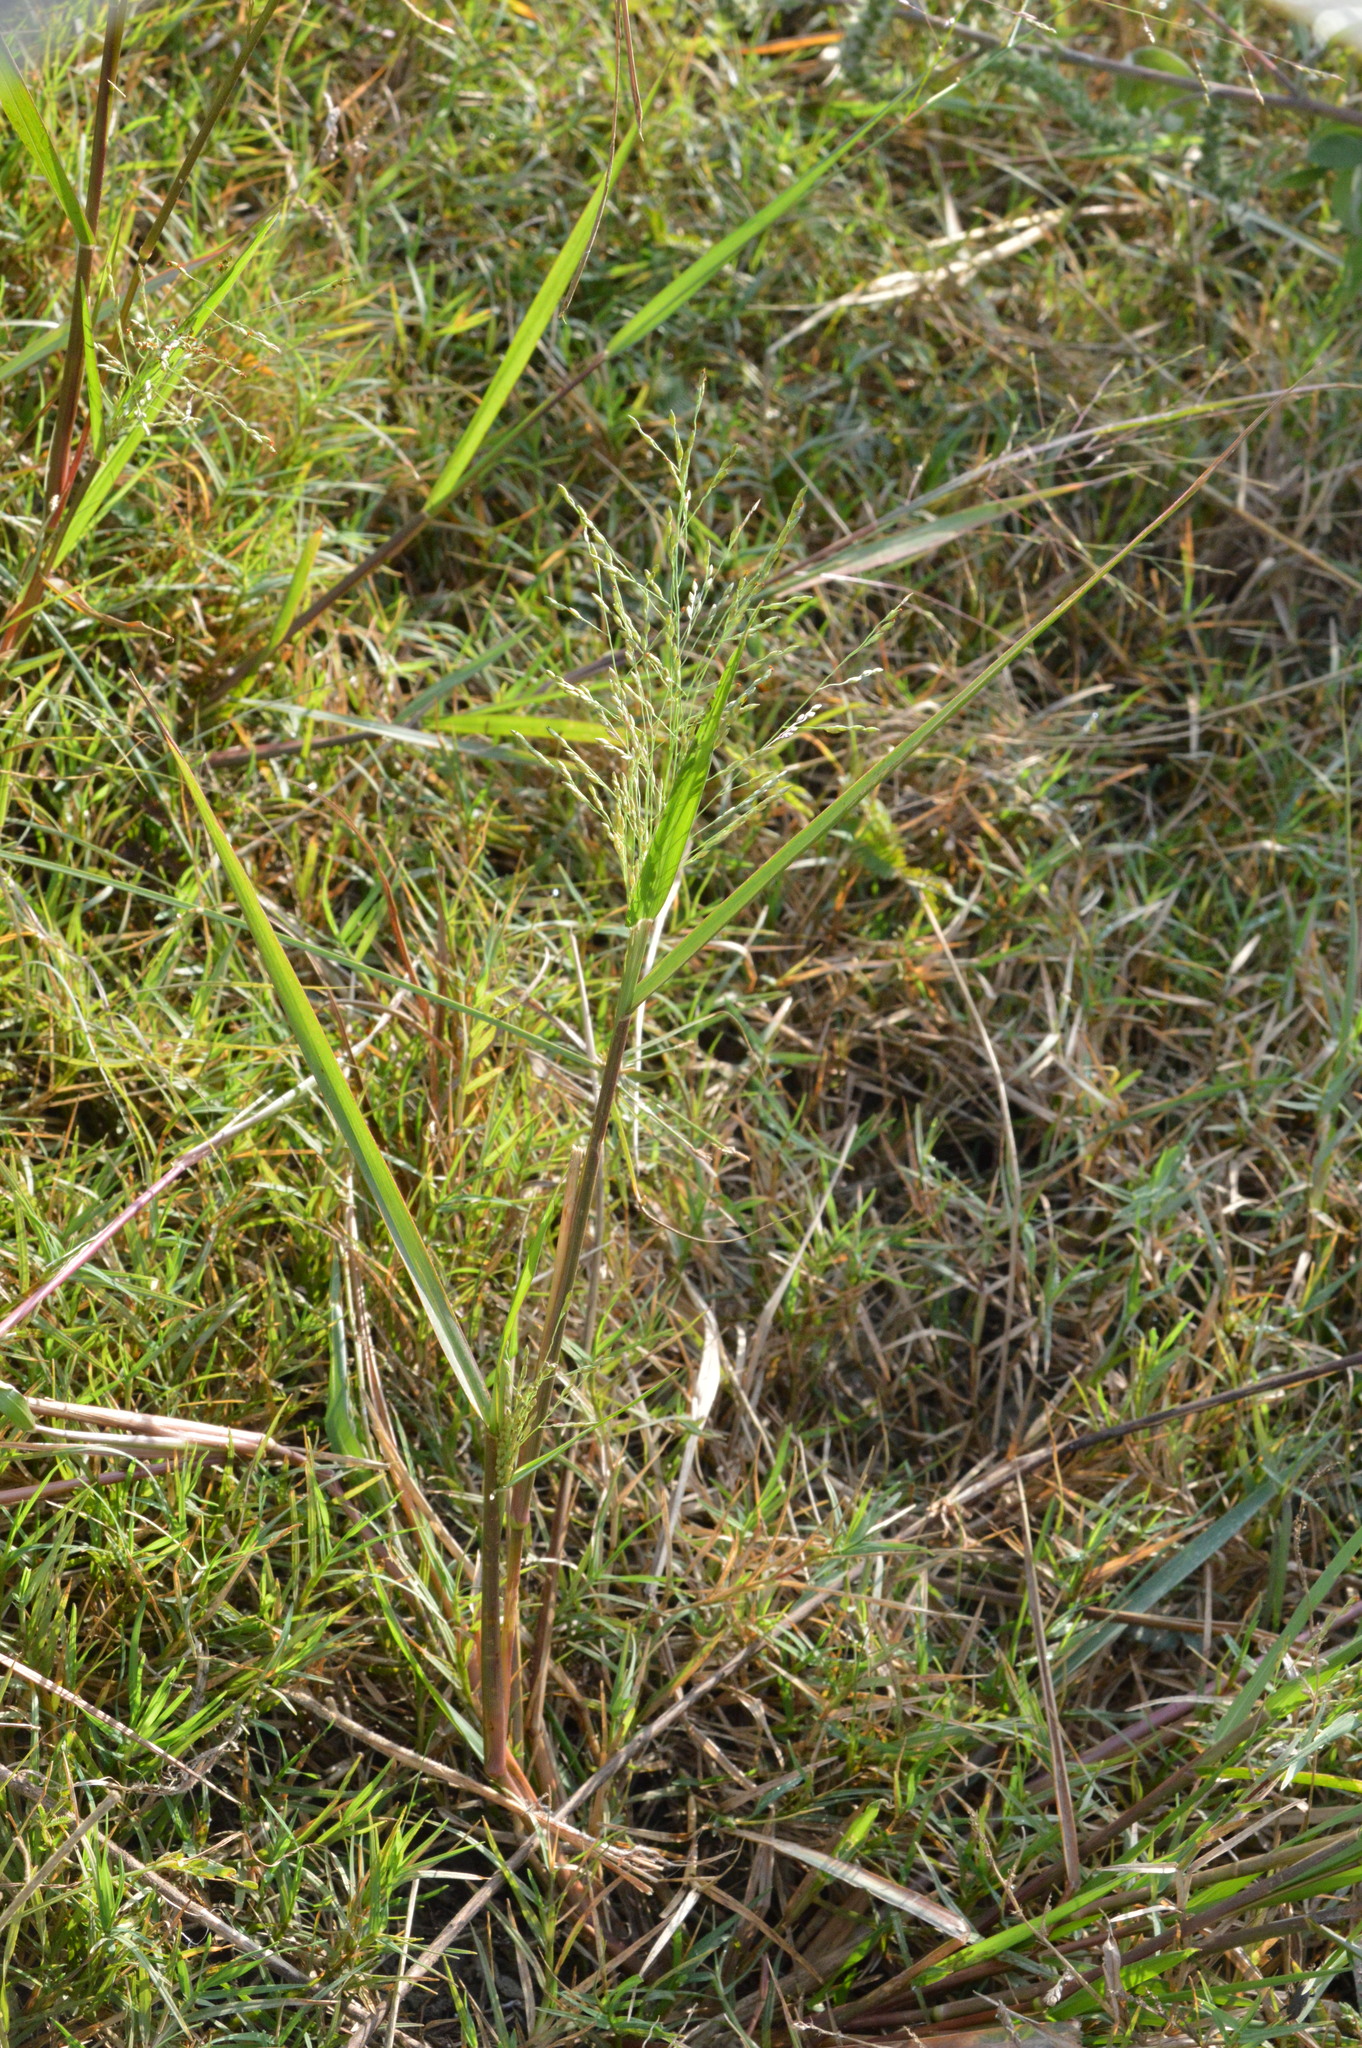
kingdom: Plantae
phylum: Tracheophyta
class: Liliopsida
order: Poales
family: Poaceae
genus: Panicum
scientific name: Panicum dichotomiflorum
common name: Autumn millet
